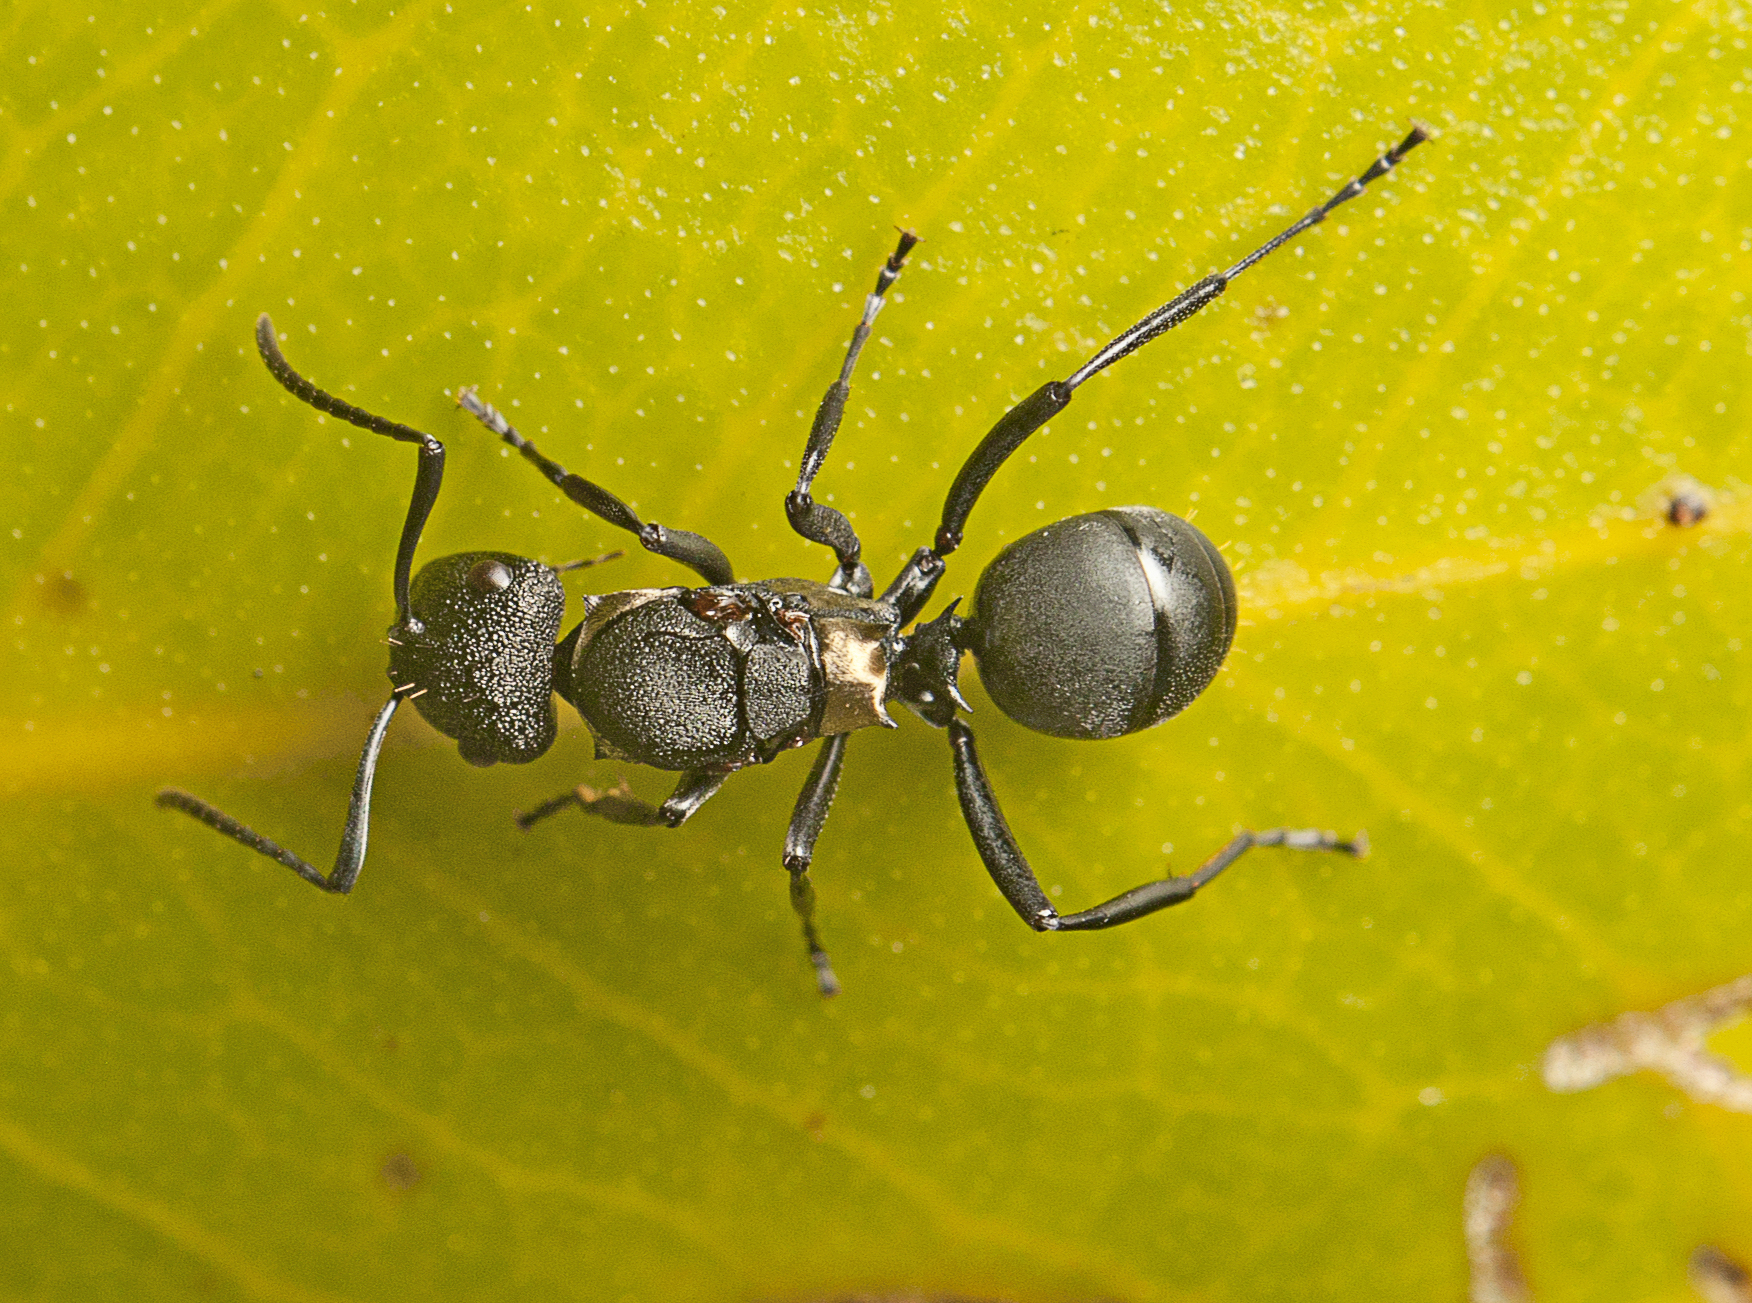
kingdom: Animalia
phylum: Arthropoda
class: Insecta
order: Hymenoptera
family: Formicidae
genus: Polyrhachis
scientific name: Polyrhachis machaon
